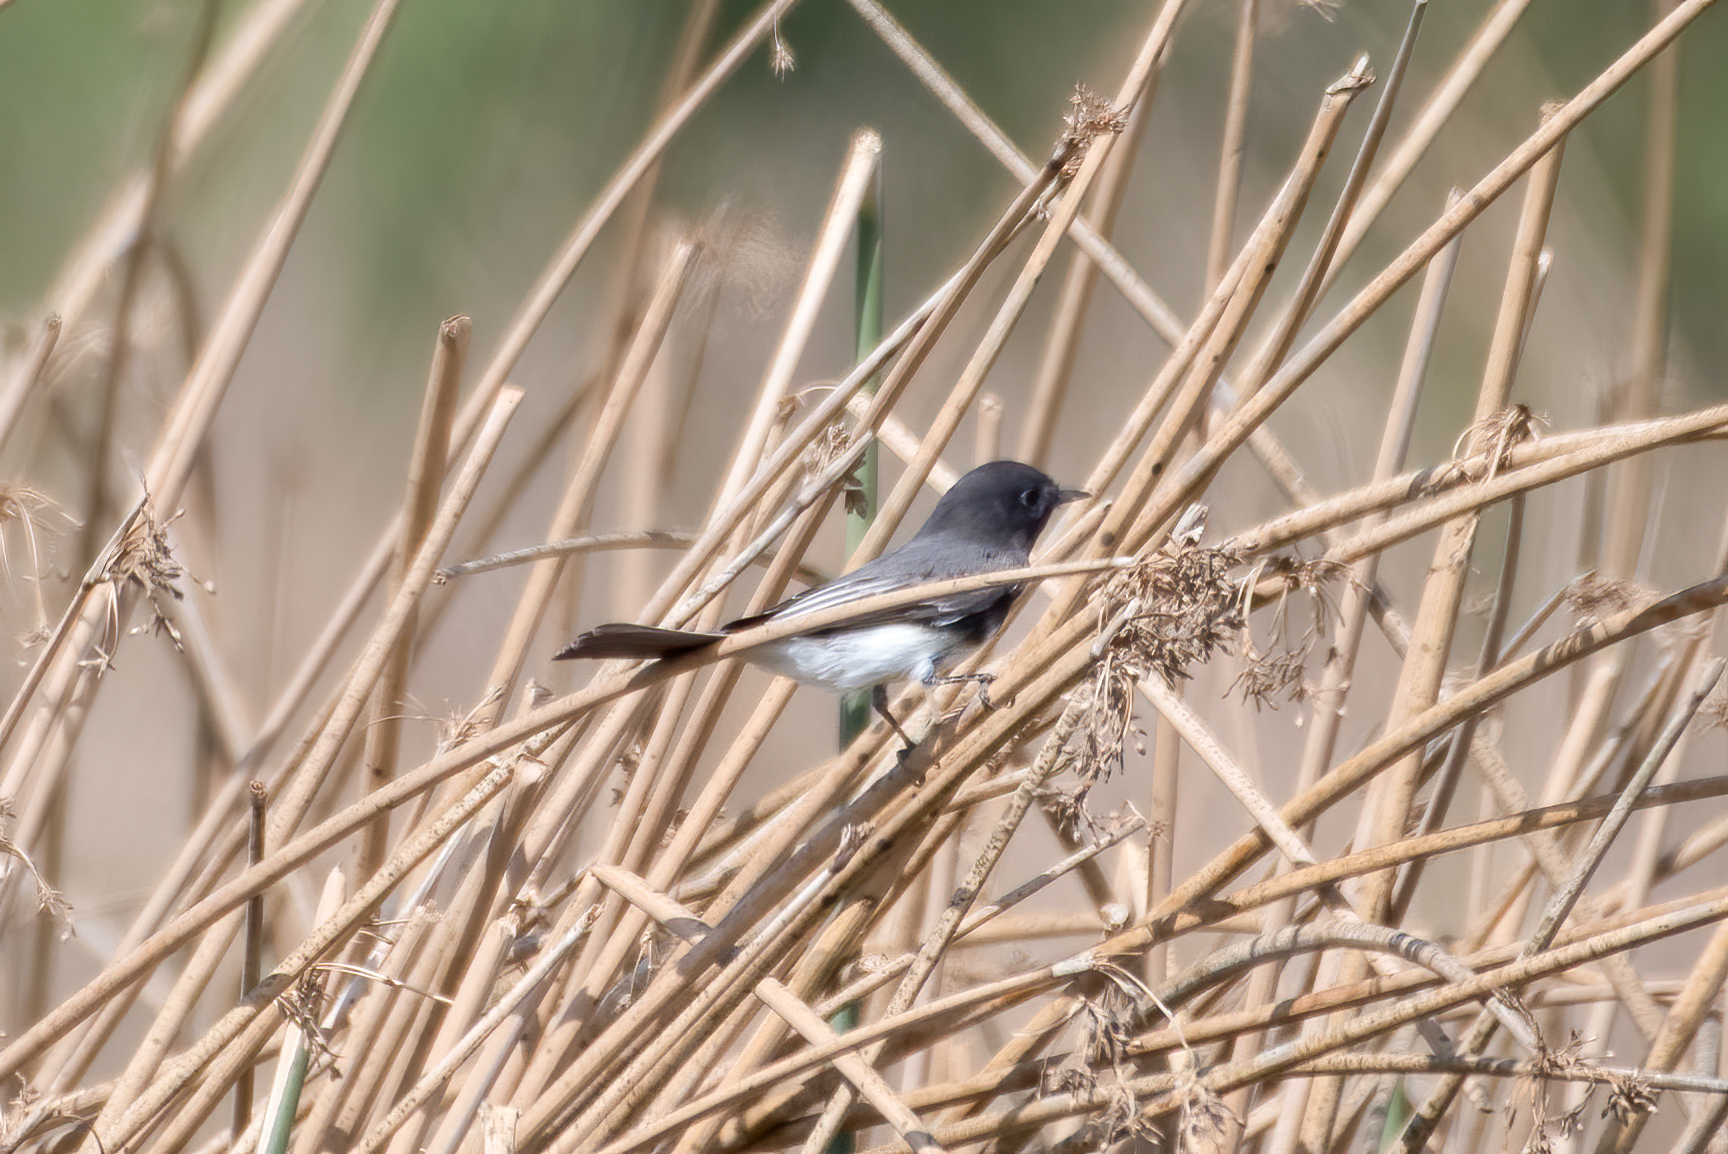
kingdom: Animalia
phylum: Chordata
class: Aves
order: Passeriformes
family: Tyrannidae
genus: Sayornis
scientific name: Sayornis nigricans
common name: Black phoebe
